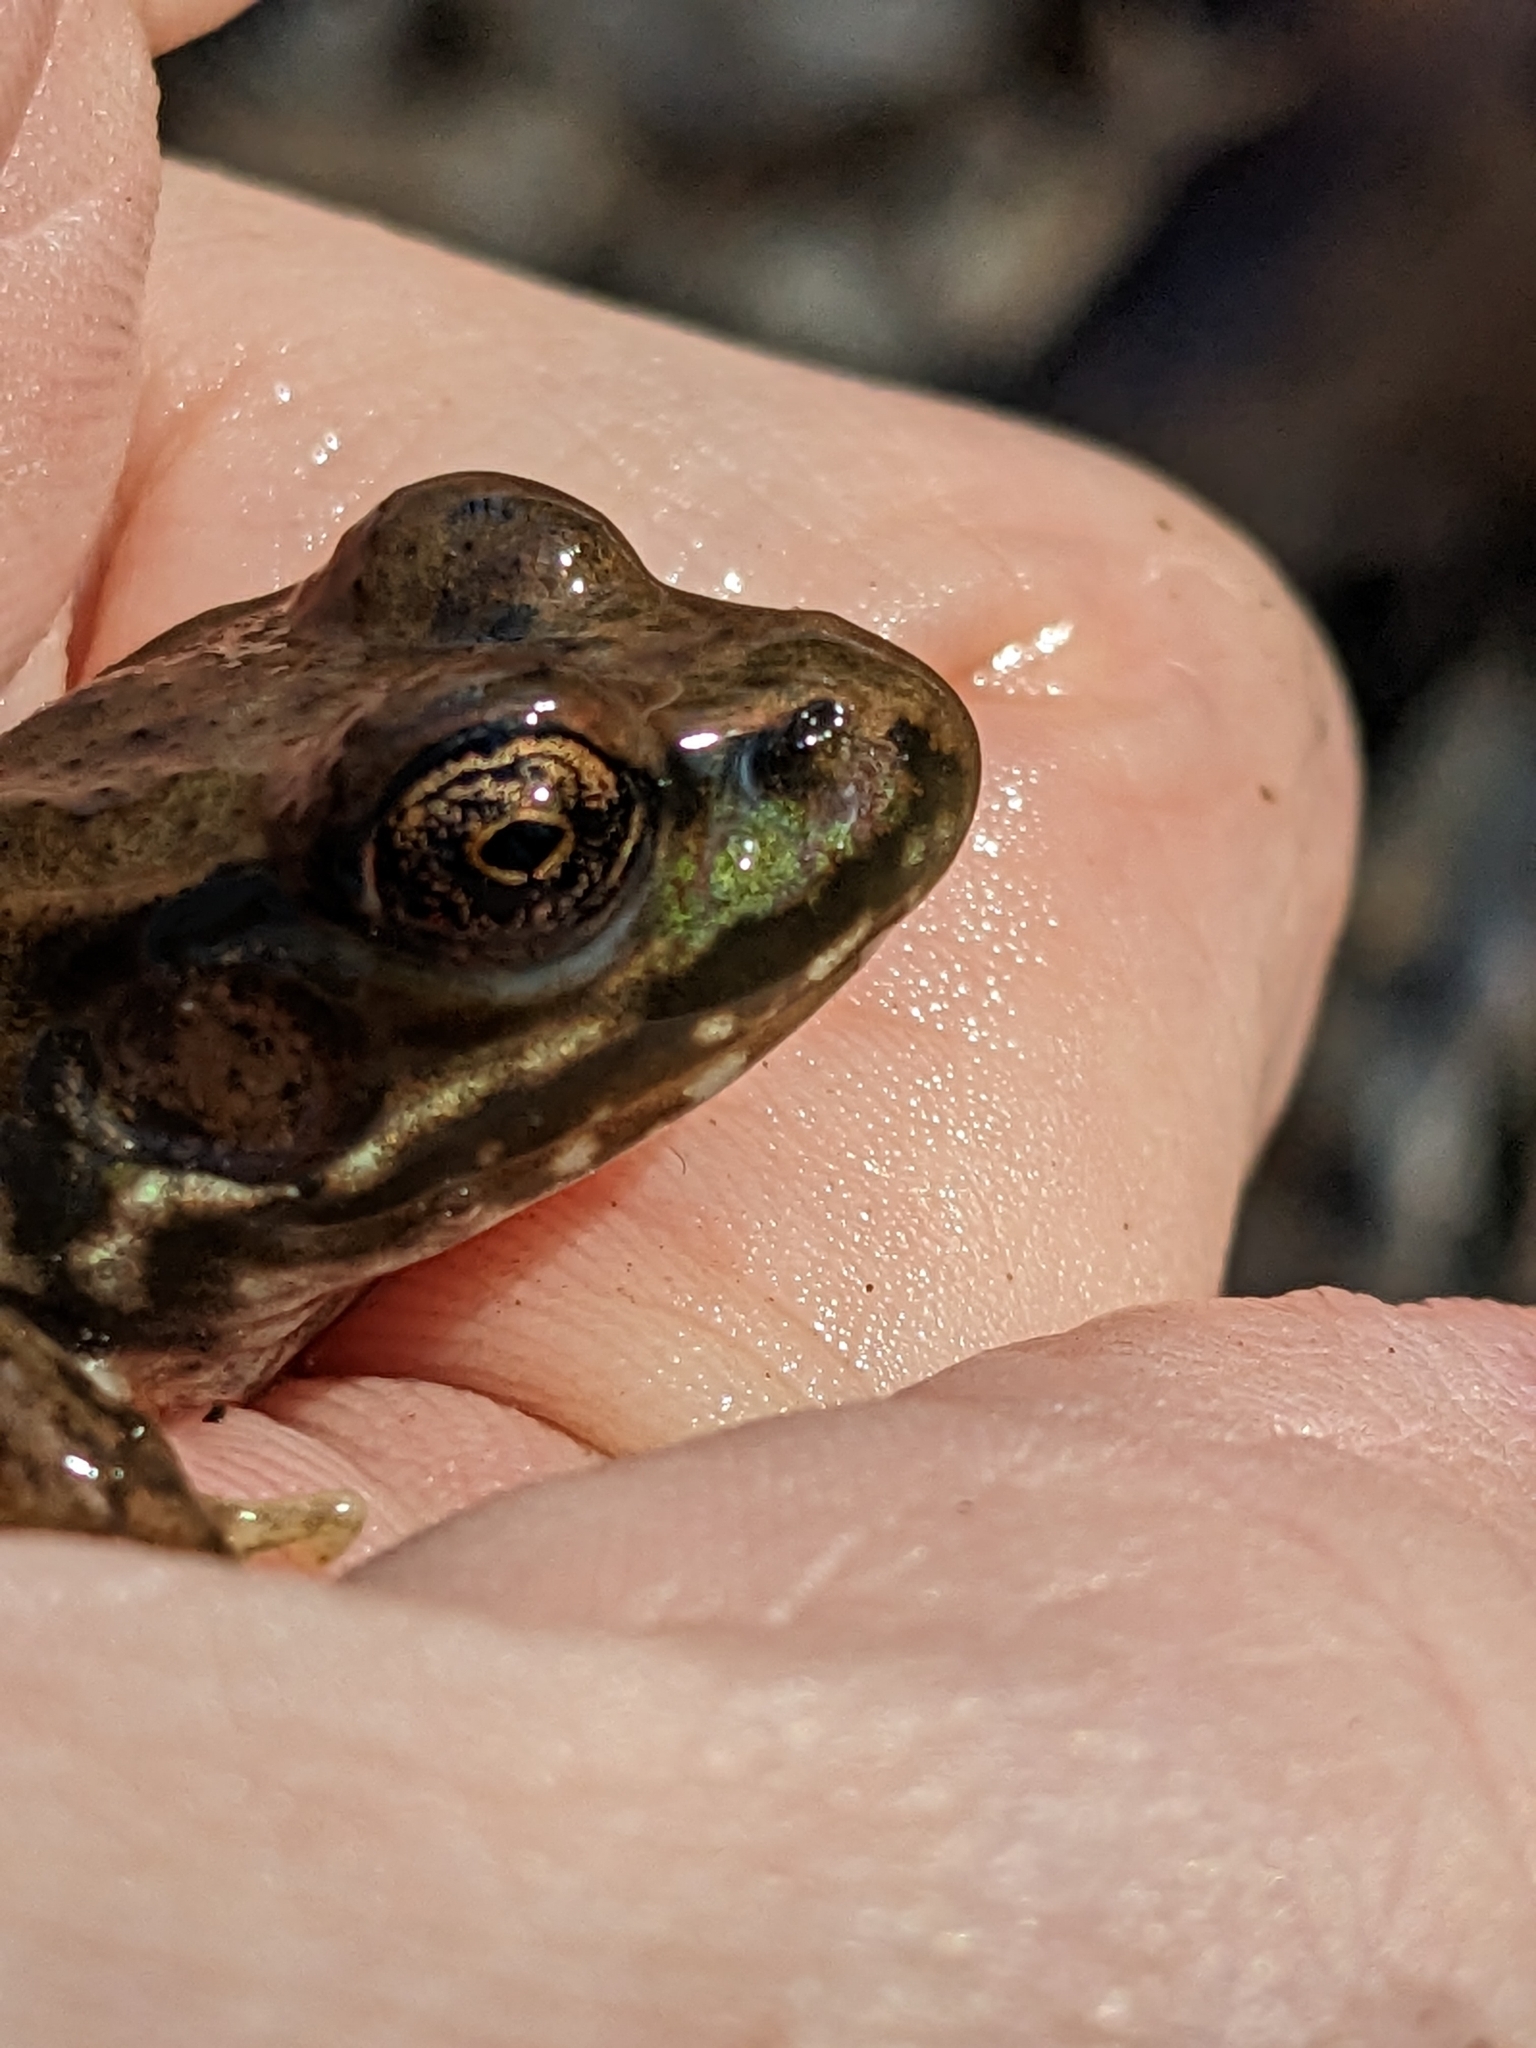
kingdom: Animalia
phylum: Chordata
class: Amphibia
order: Anura
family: Ranidae
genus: Lithobates
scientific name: Lithobates clamitans
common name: Green frog
